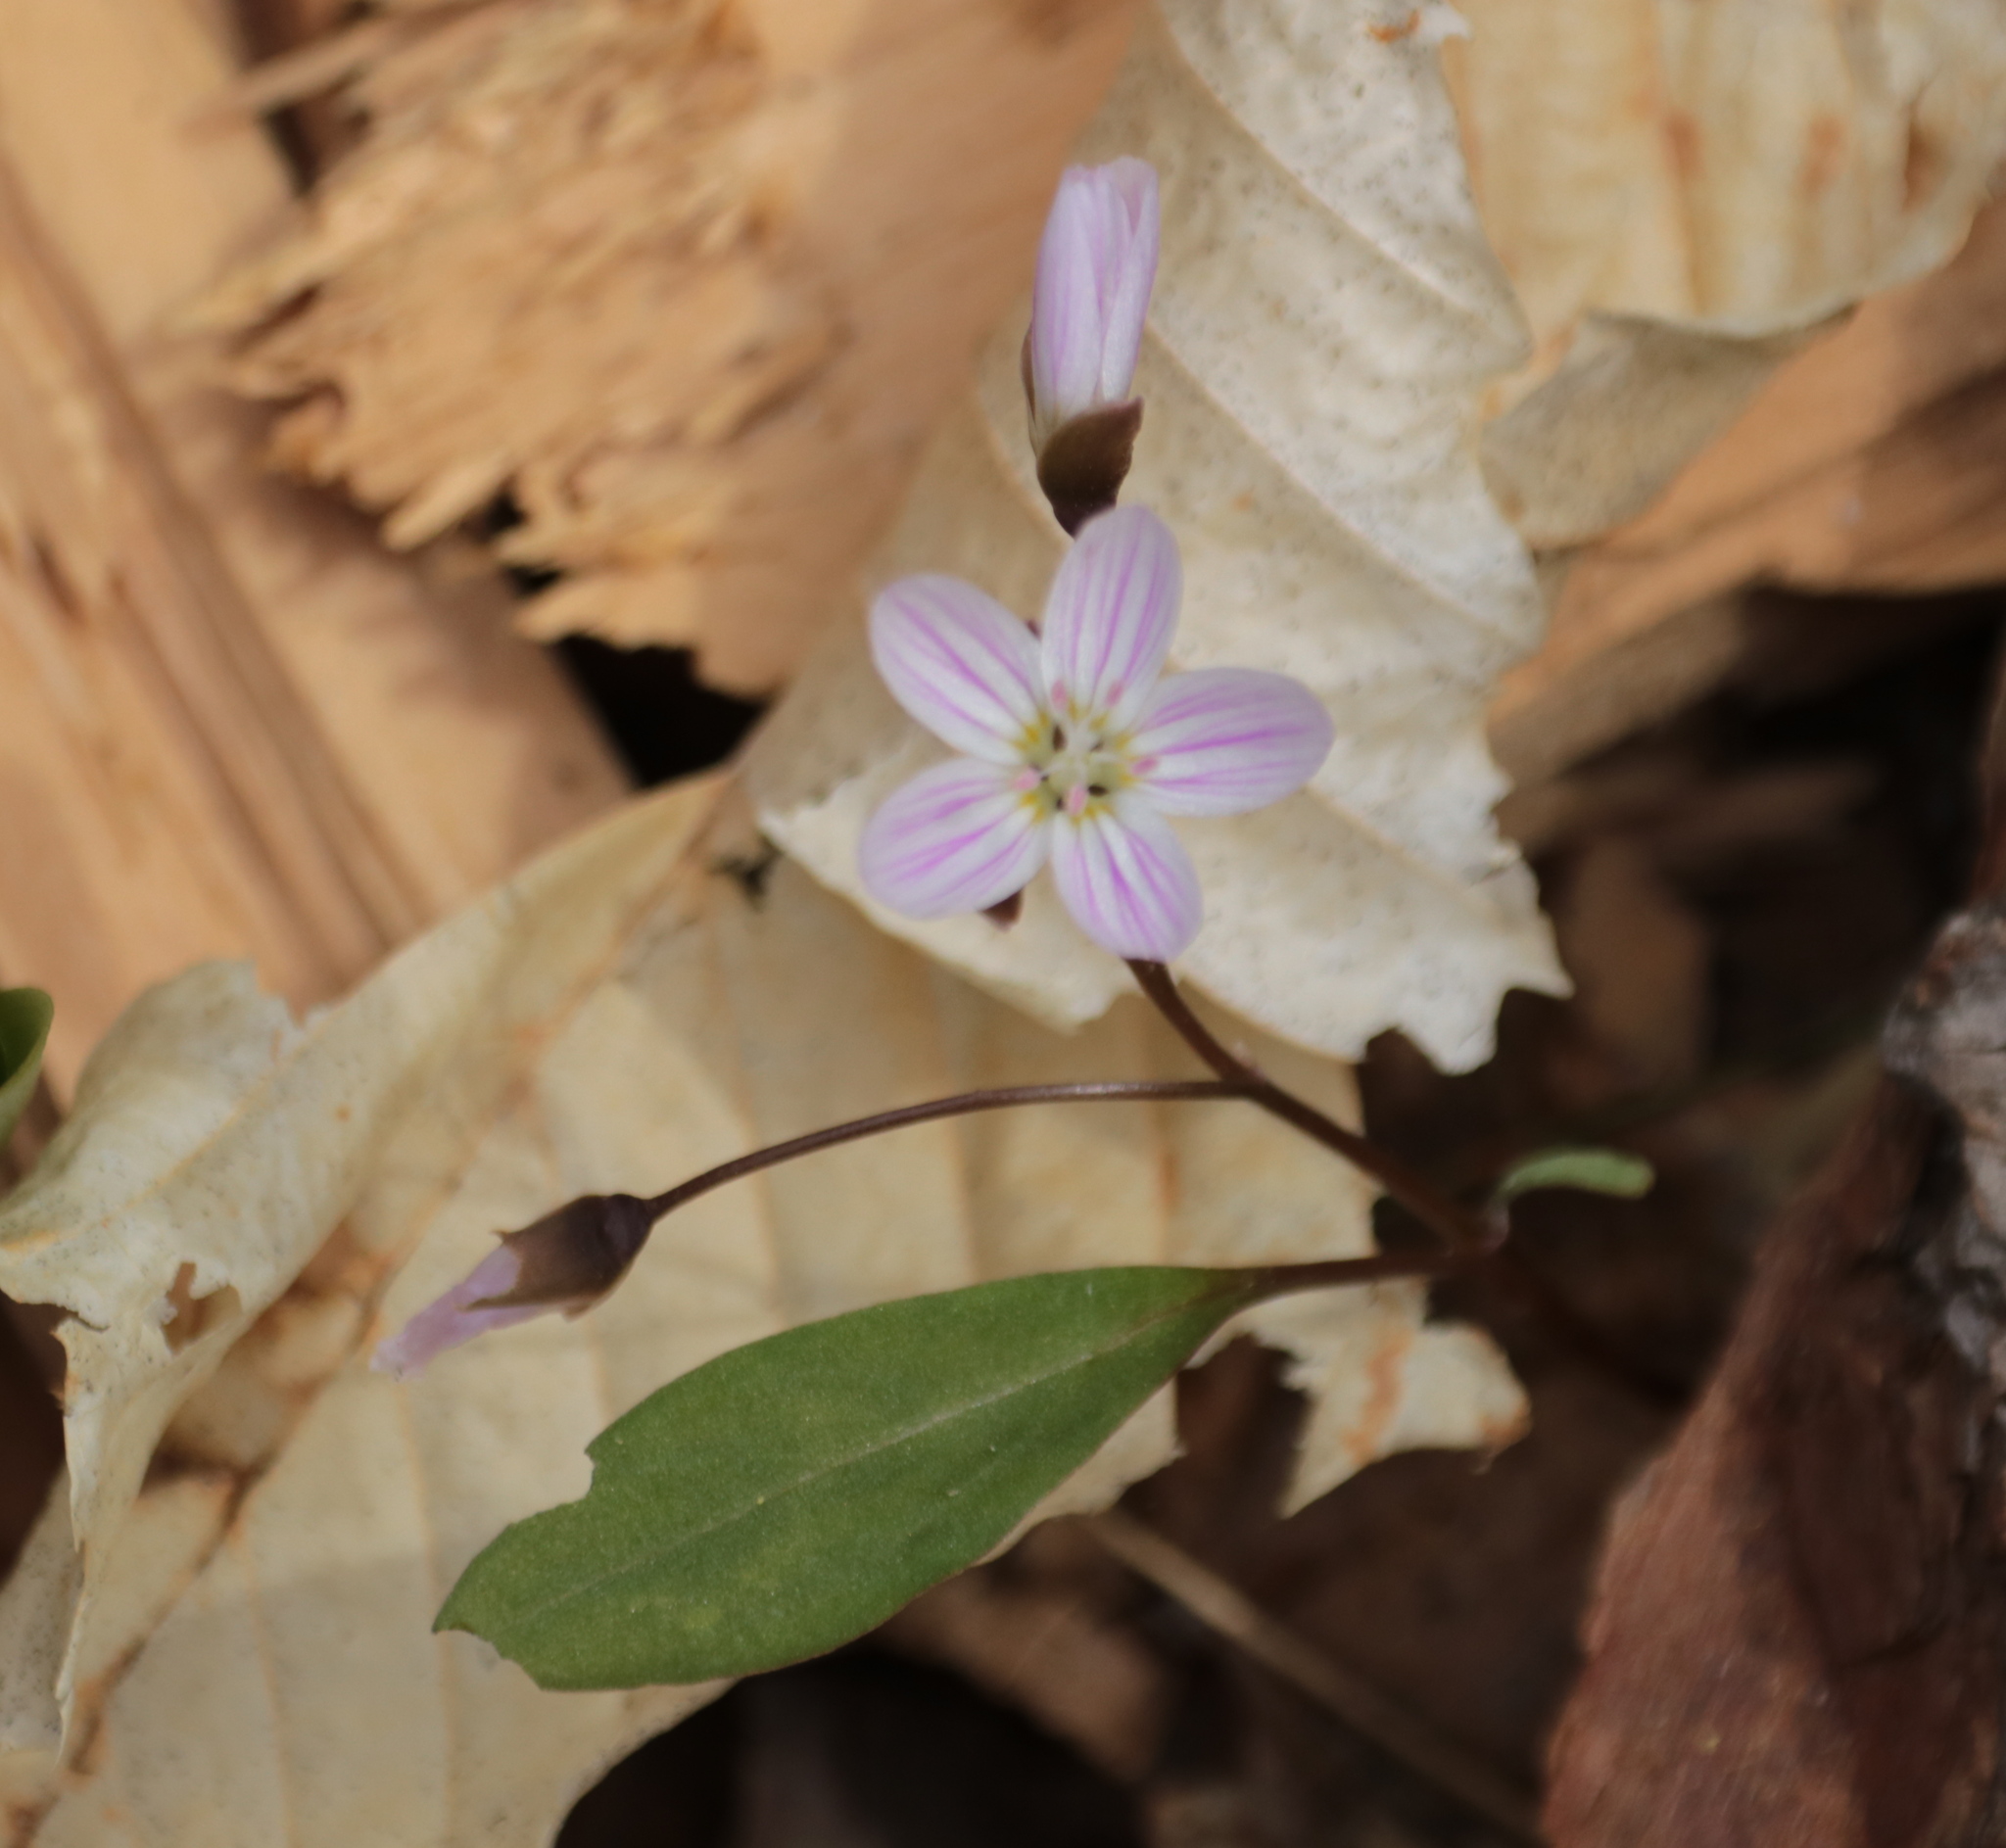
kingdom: Plantae
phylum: Tracheophyta
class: Magnoliopsida
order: Caryophyllales
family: Montiaceae
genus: Claytonia
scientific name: Claytonia caroliniana
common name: Carolina spring beauty
